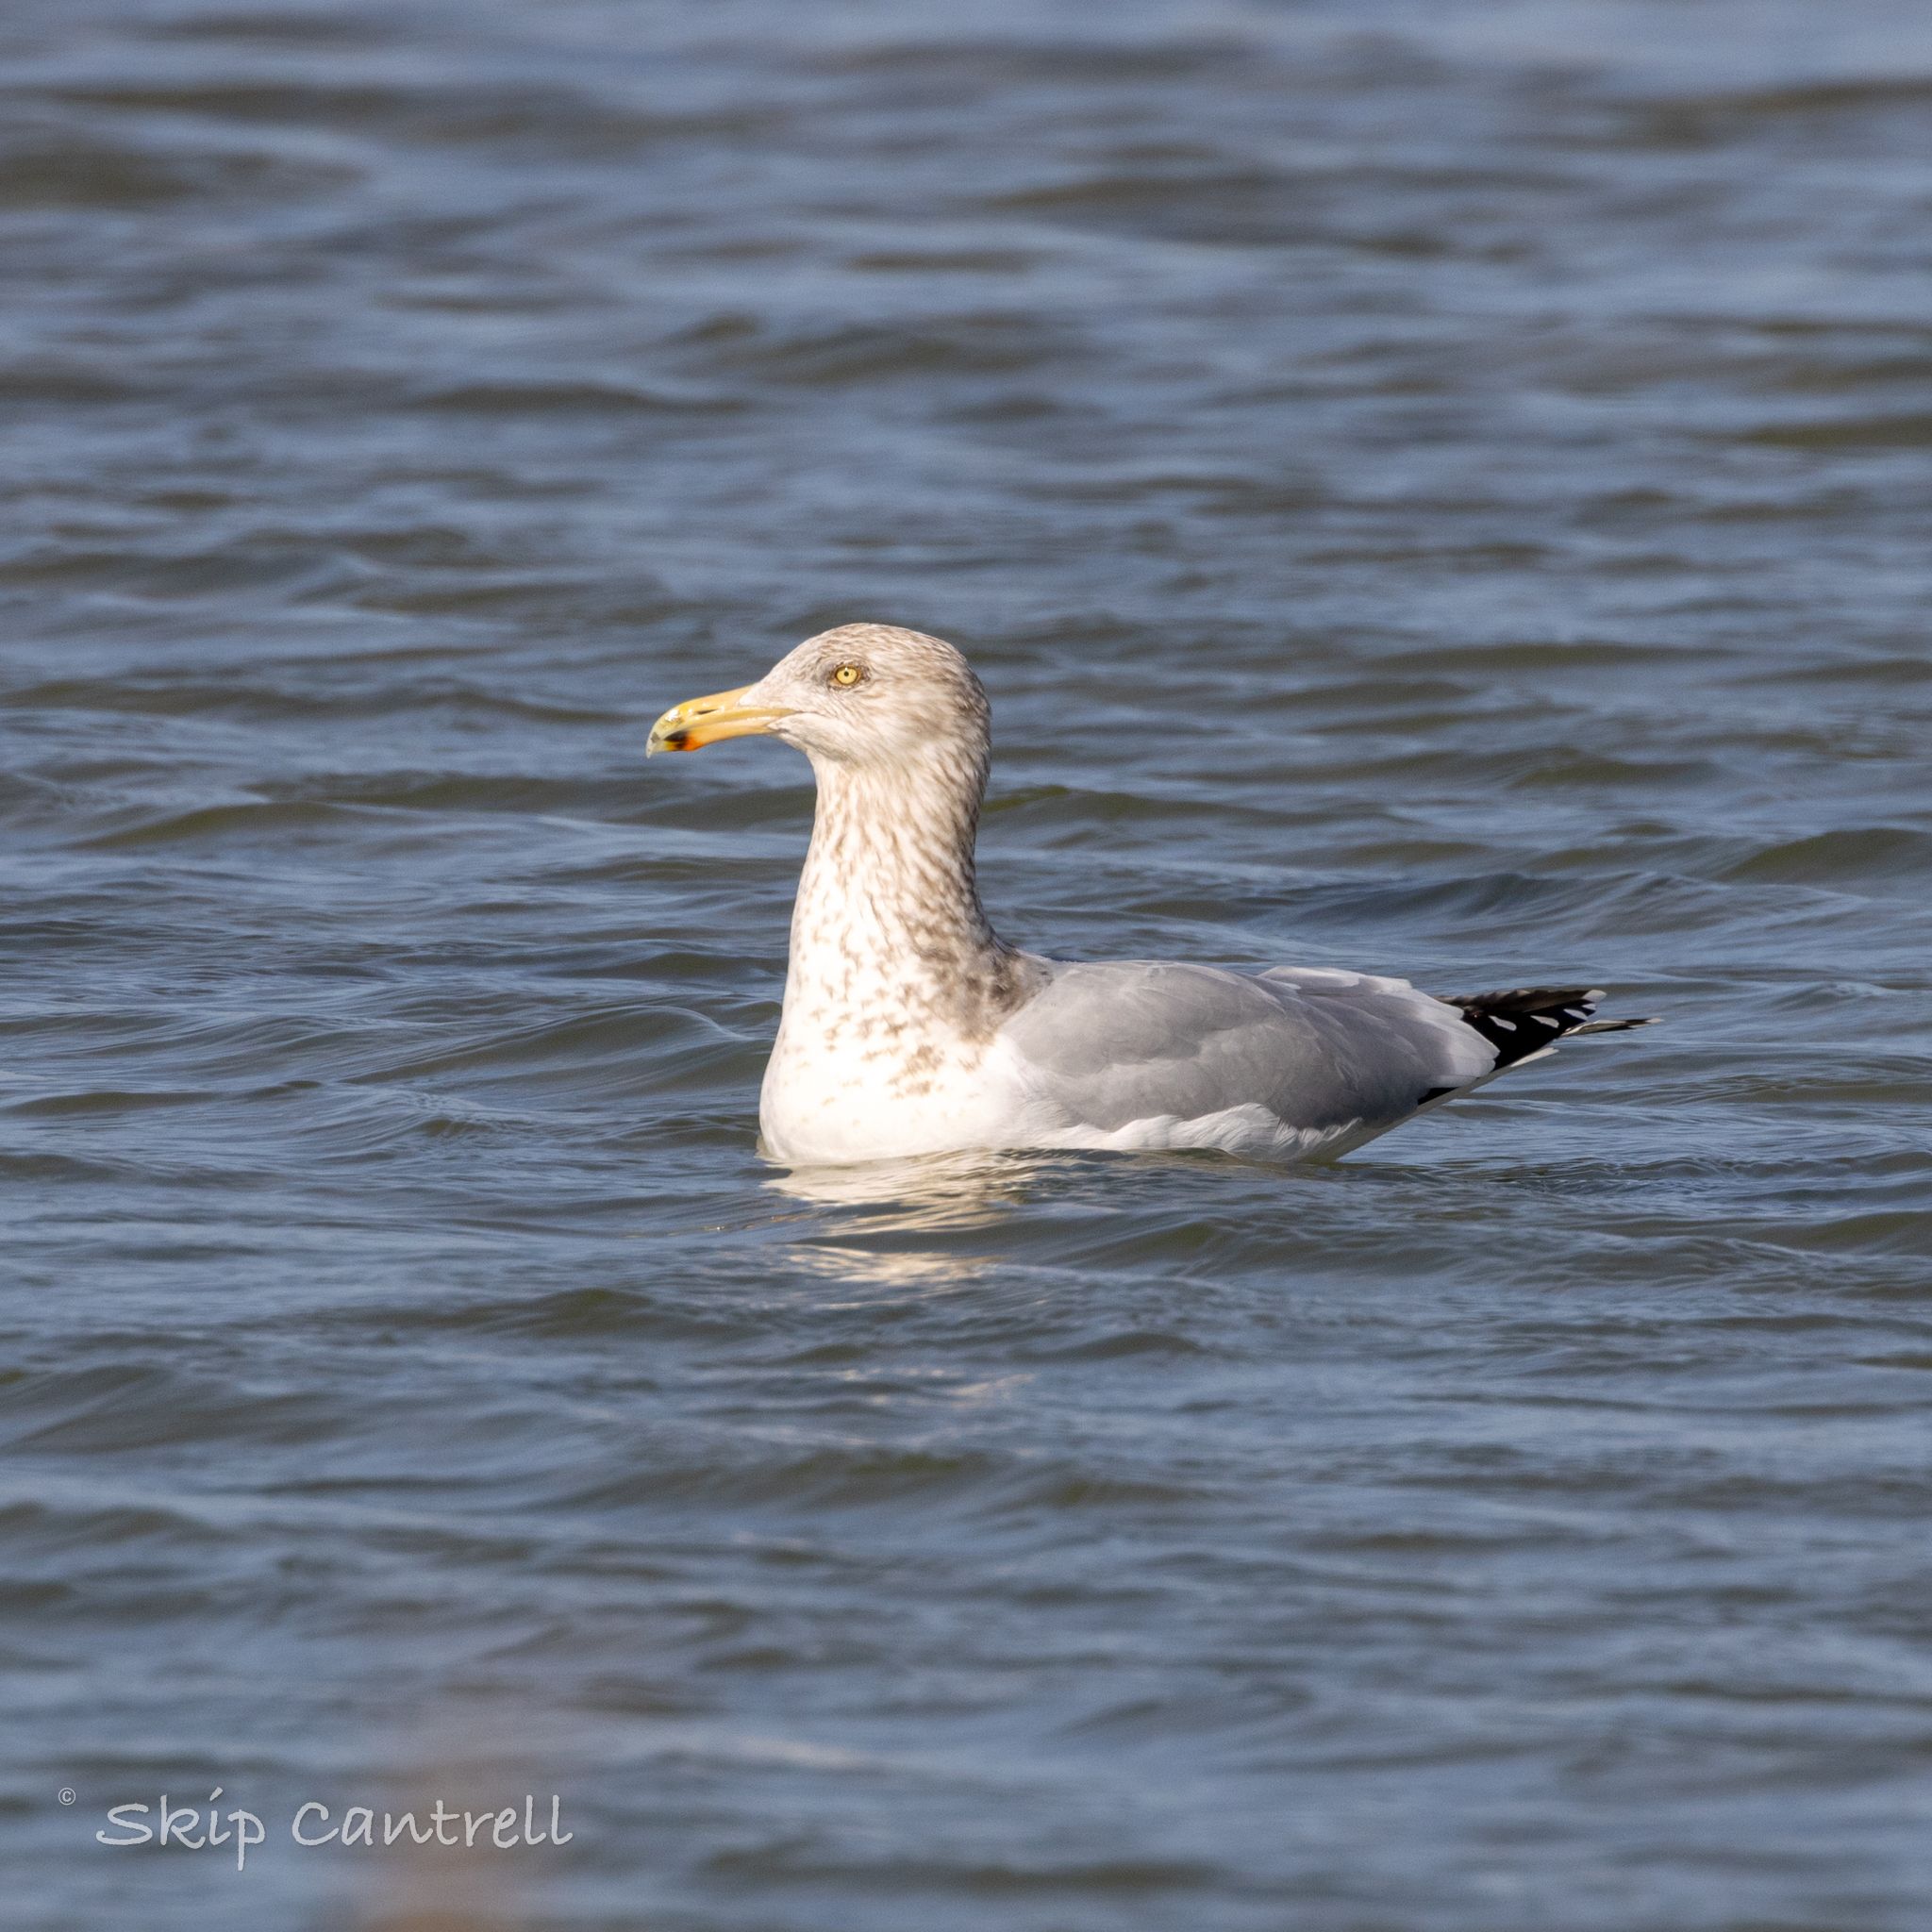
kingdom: Animalia
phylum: Chordata
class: Aves
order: Charadriiformes
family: Laridae
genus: Larus
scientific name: Larus argentatus
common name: Herring gull
